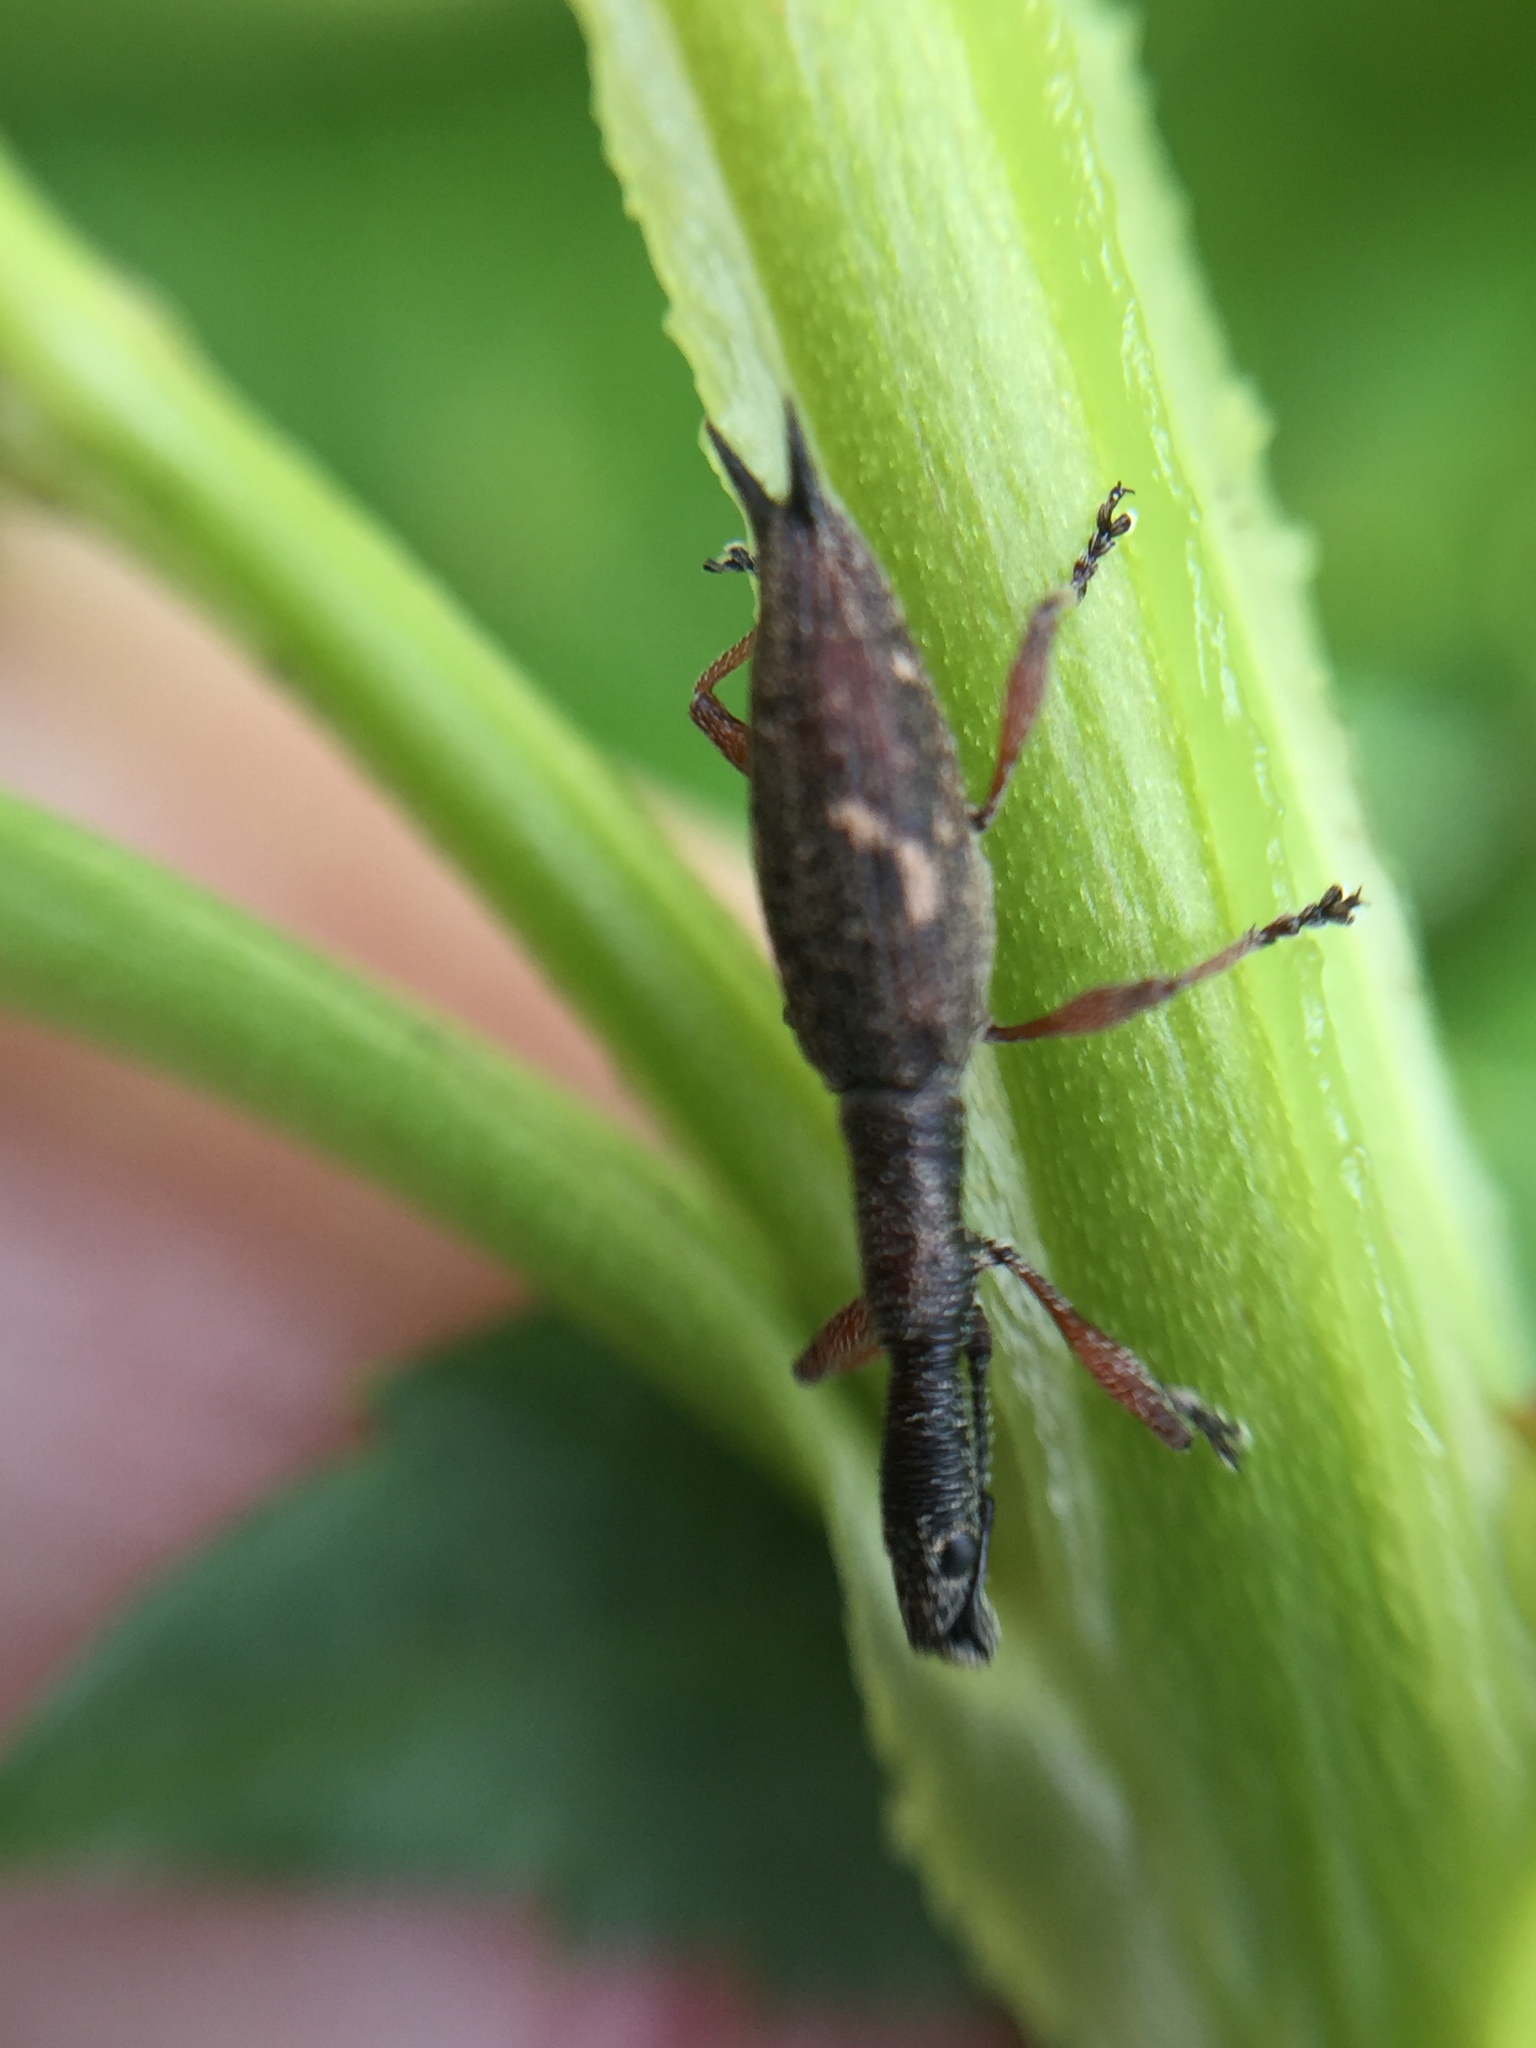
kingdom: Animalia
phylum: Arthropoda
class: Insecta
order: Coleoptera
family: Curculionidae
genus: Rhadinosomus
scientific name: Rhadinosomus acuminatus
